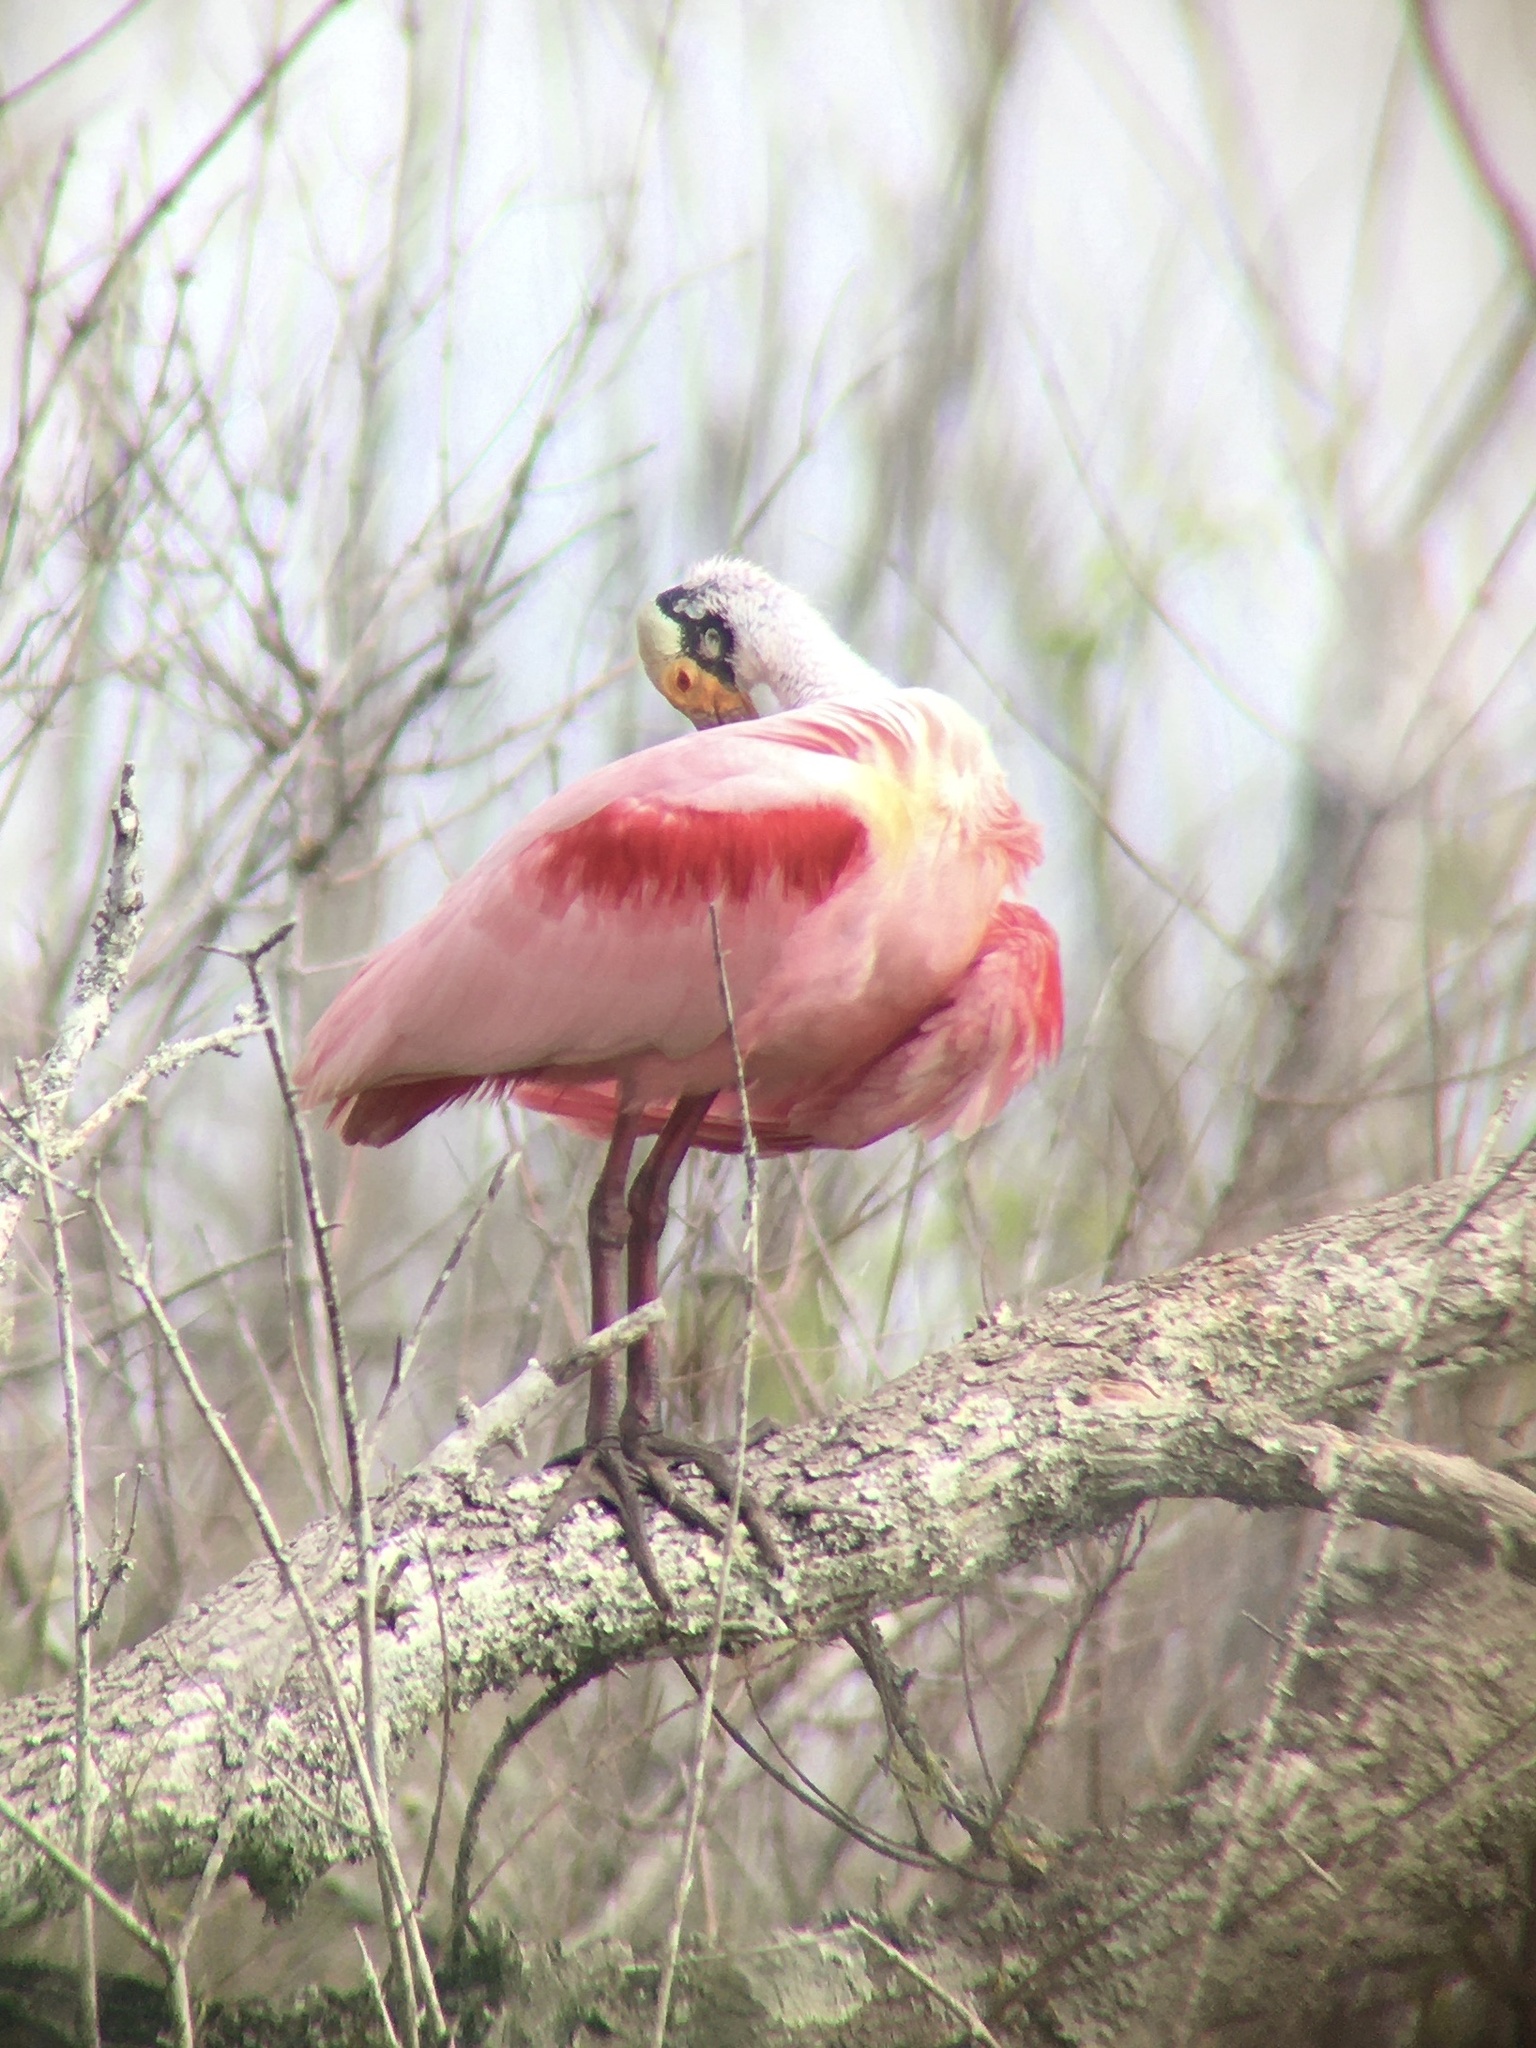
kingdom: Animalia
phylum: Chordata
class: Aves
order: Pelecaniformes
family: Threskiornithidae
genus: Platalea
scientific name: Platalea ajaja
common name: Roseate spoonbill
